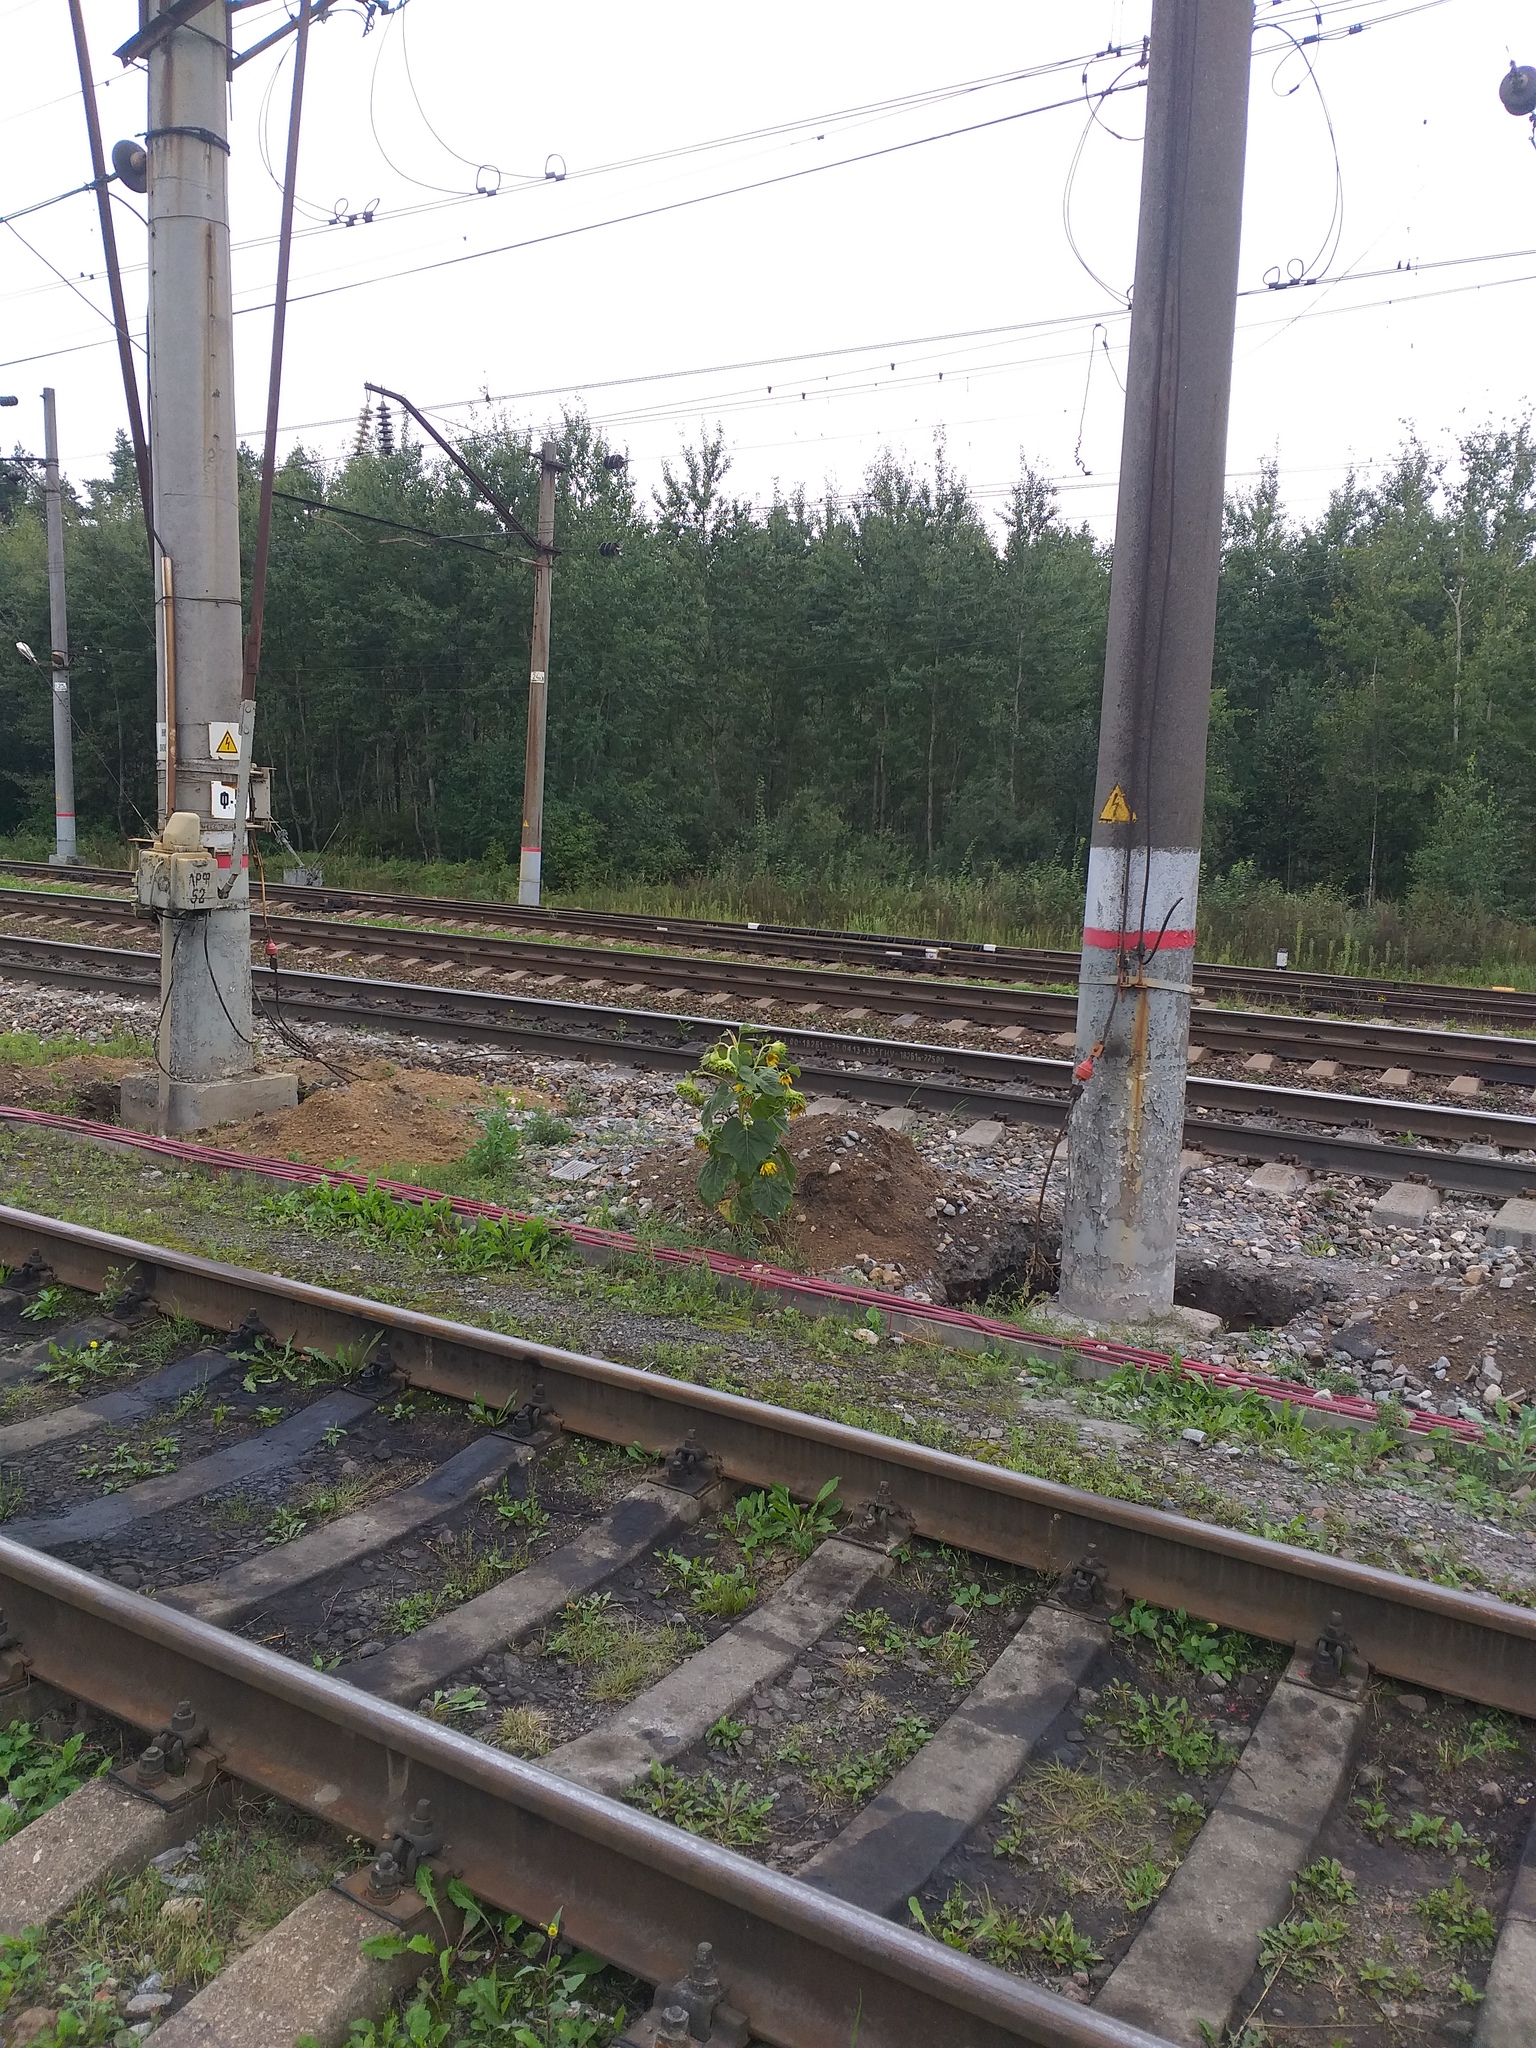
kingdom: Plantae
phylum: Tracheophyta
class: Magnoliopsida
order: Asterales
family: Asteraceae
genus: Helianthus
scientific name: Helianthus annuus
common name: Sunflower
